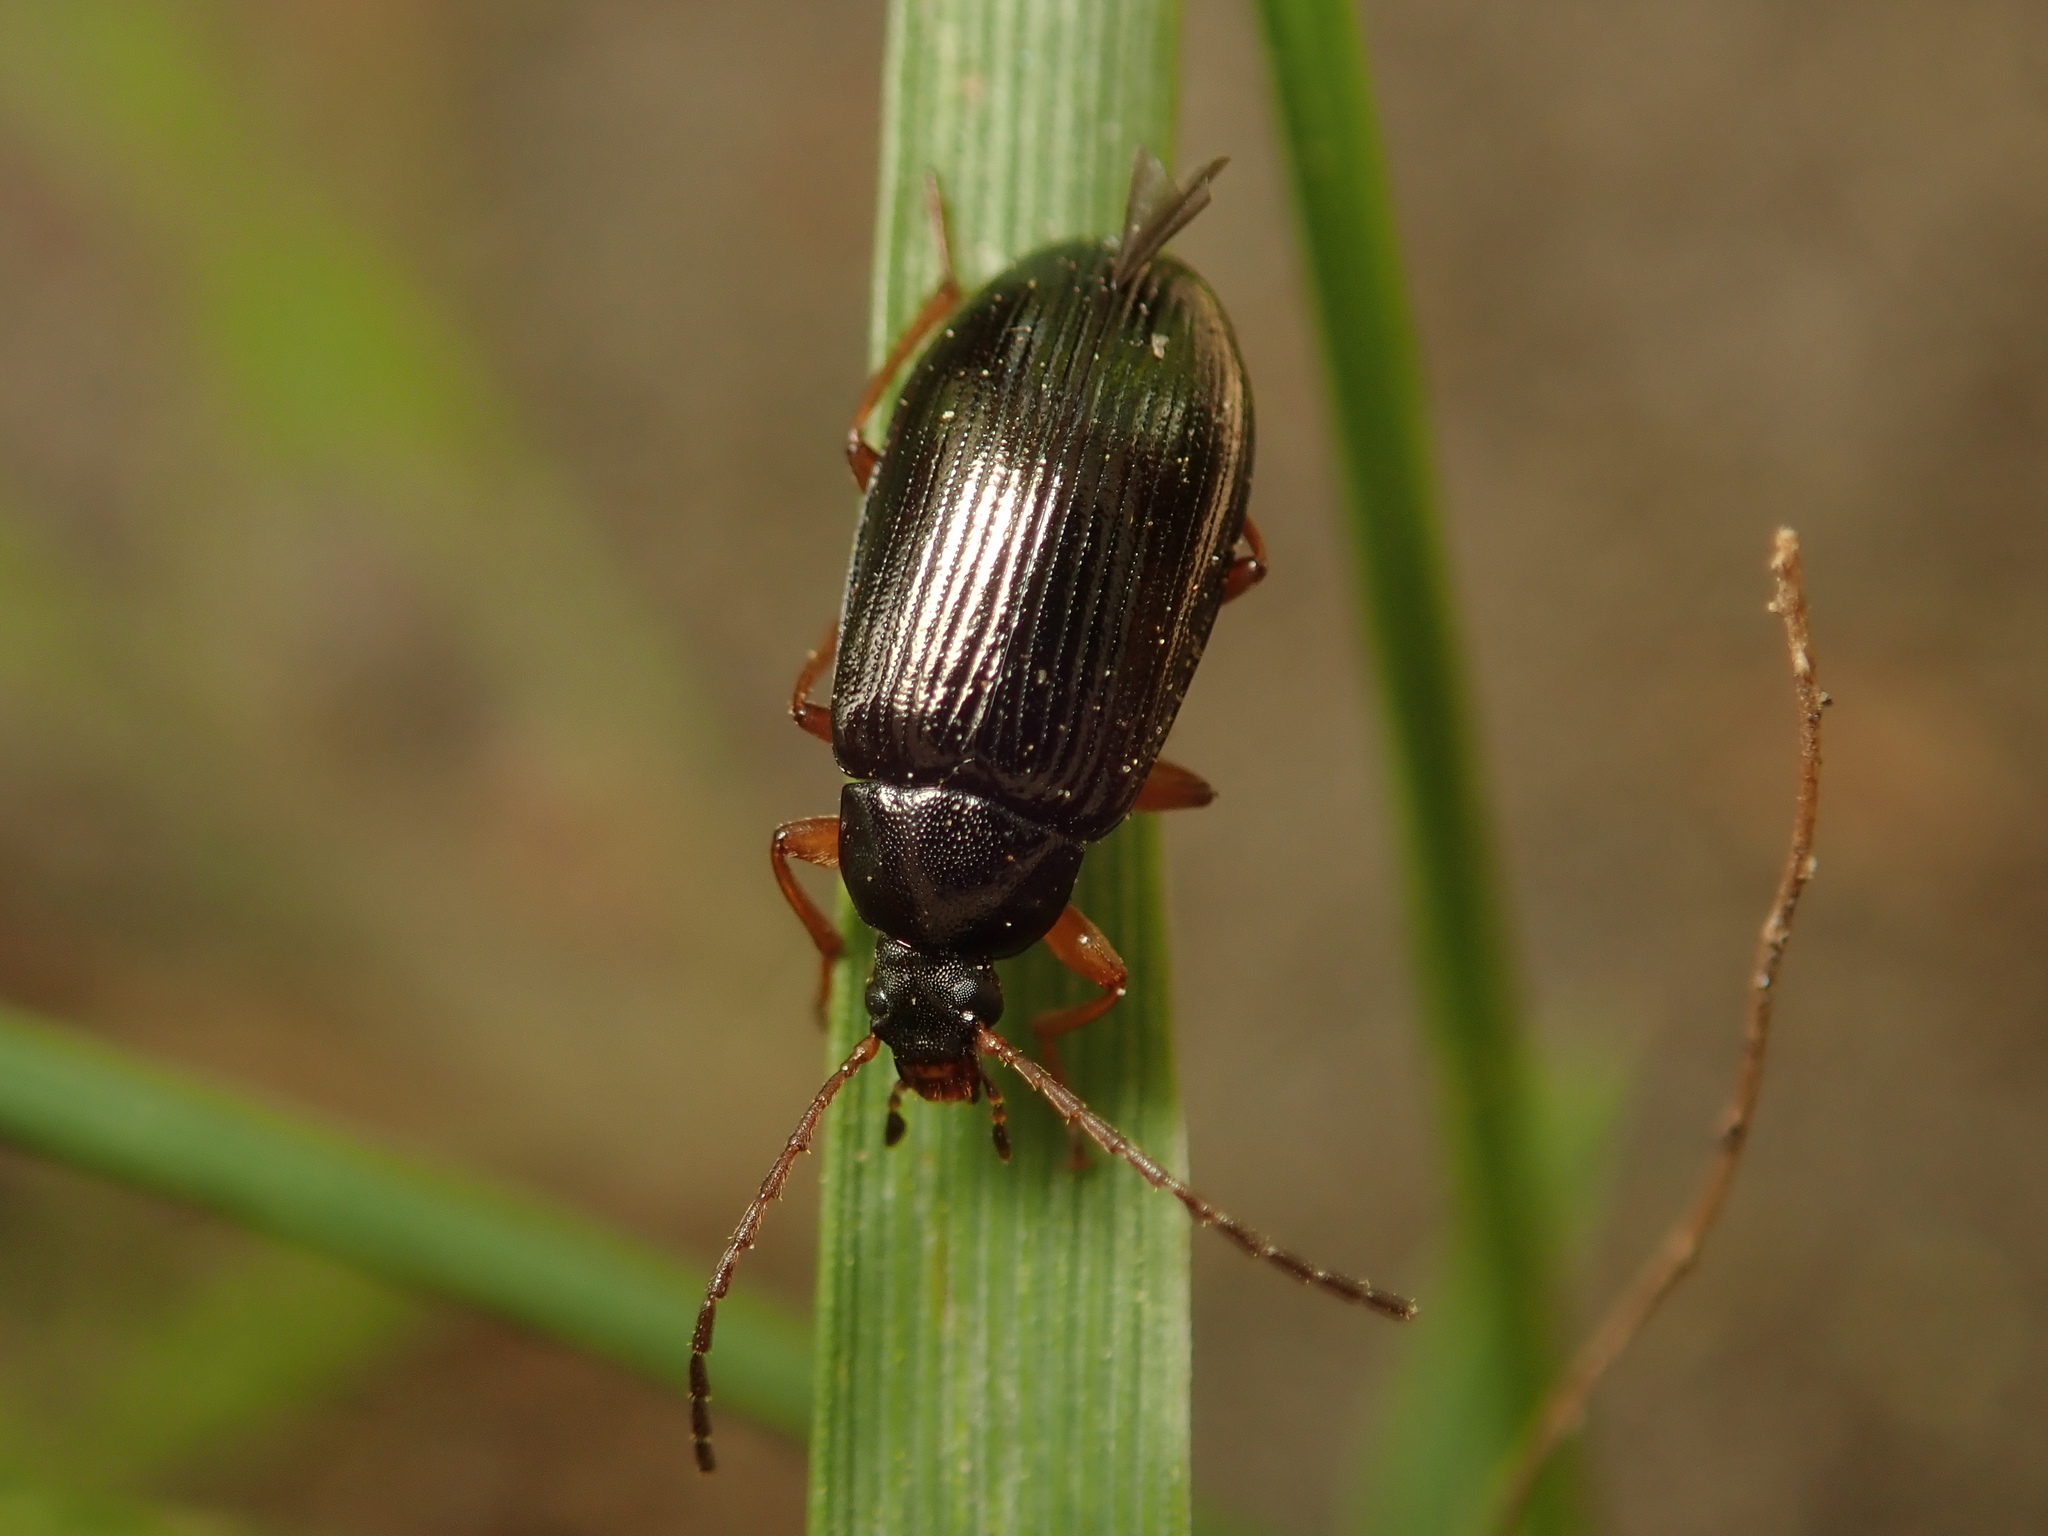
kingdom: Animalia
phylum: Arthropoda
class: Insecta
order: Coleoptera
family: Tenebrionidae
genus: Gonodera
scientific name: Gonodera luperus
